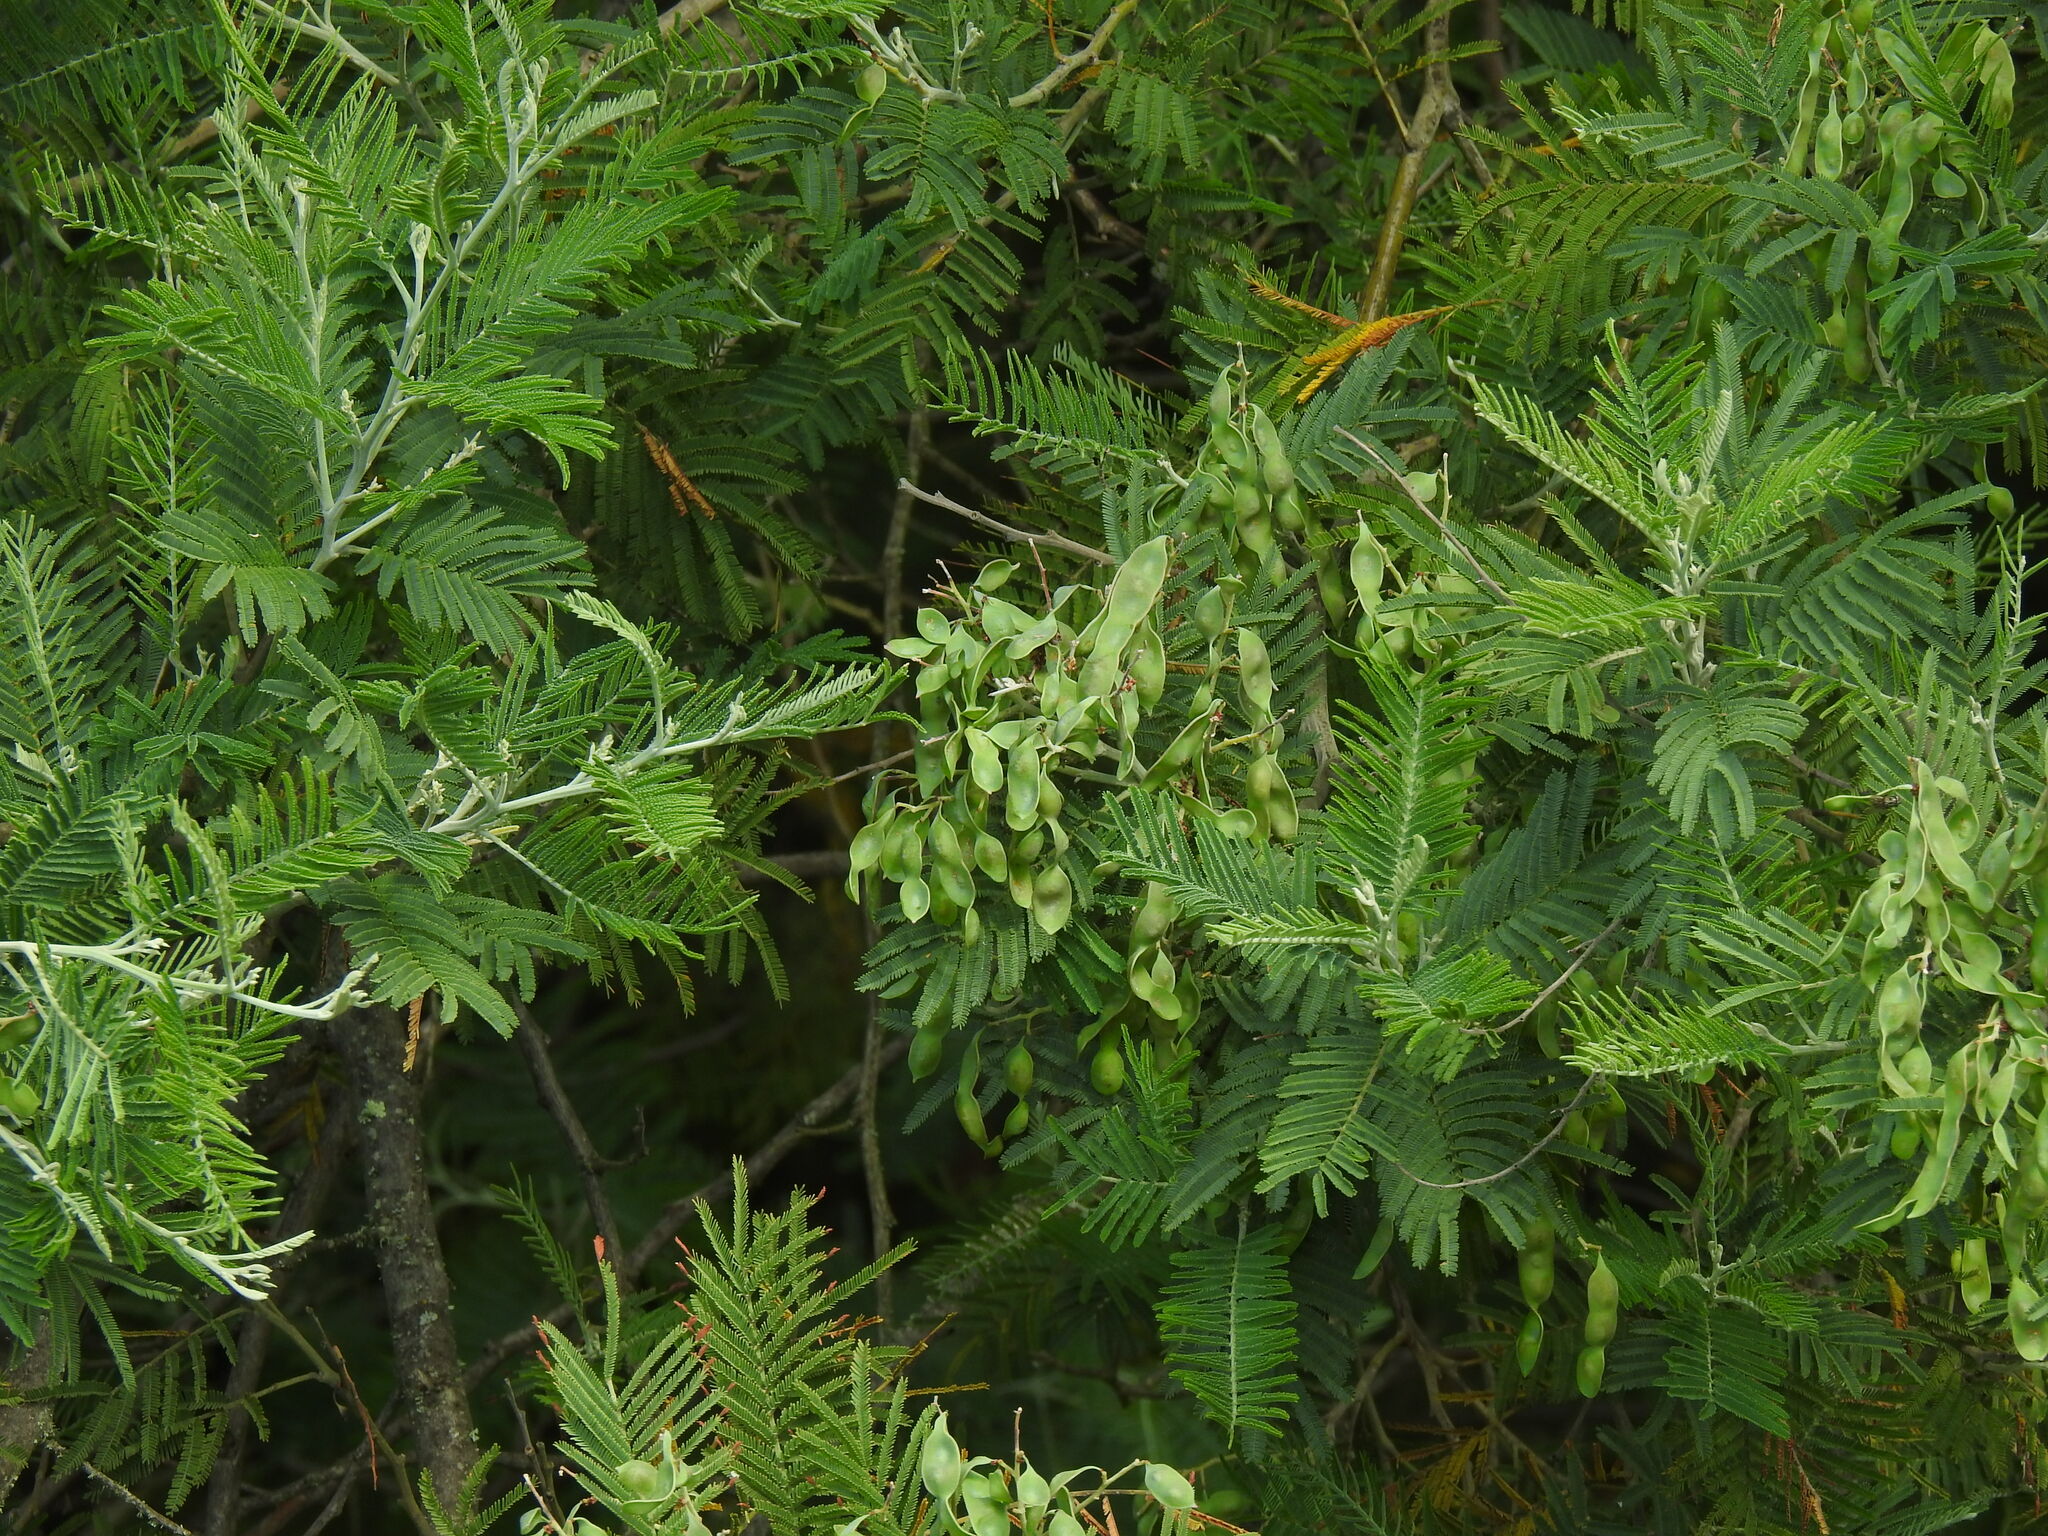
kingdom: Plantae
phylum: Tracheophyta
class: Magnoliopsida
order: Fabales
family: Fabaceae
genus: Acacia
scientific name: Acacia dealbata
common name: Silver wattle
